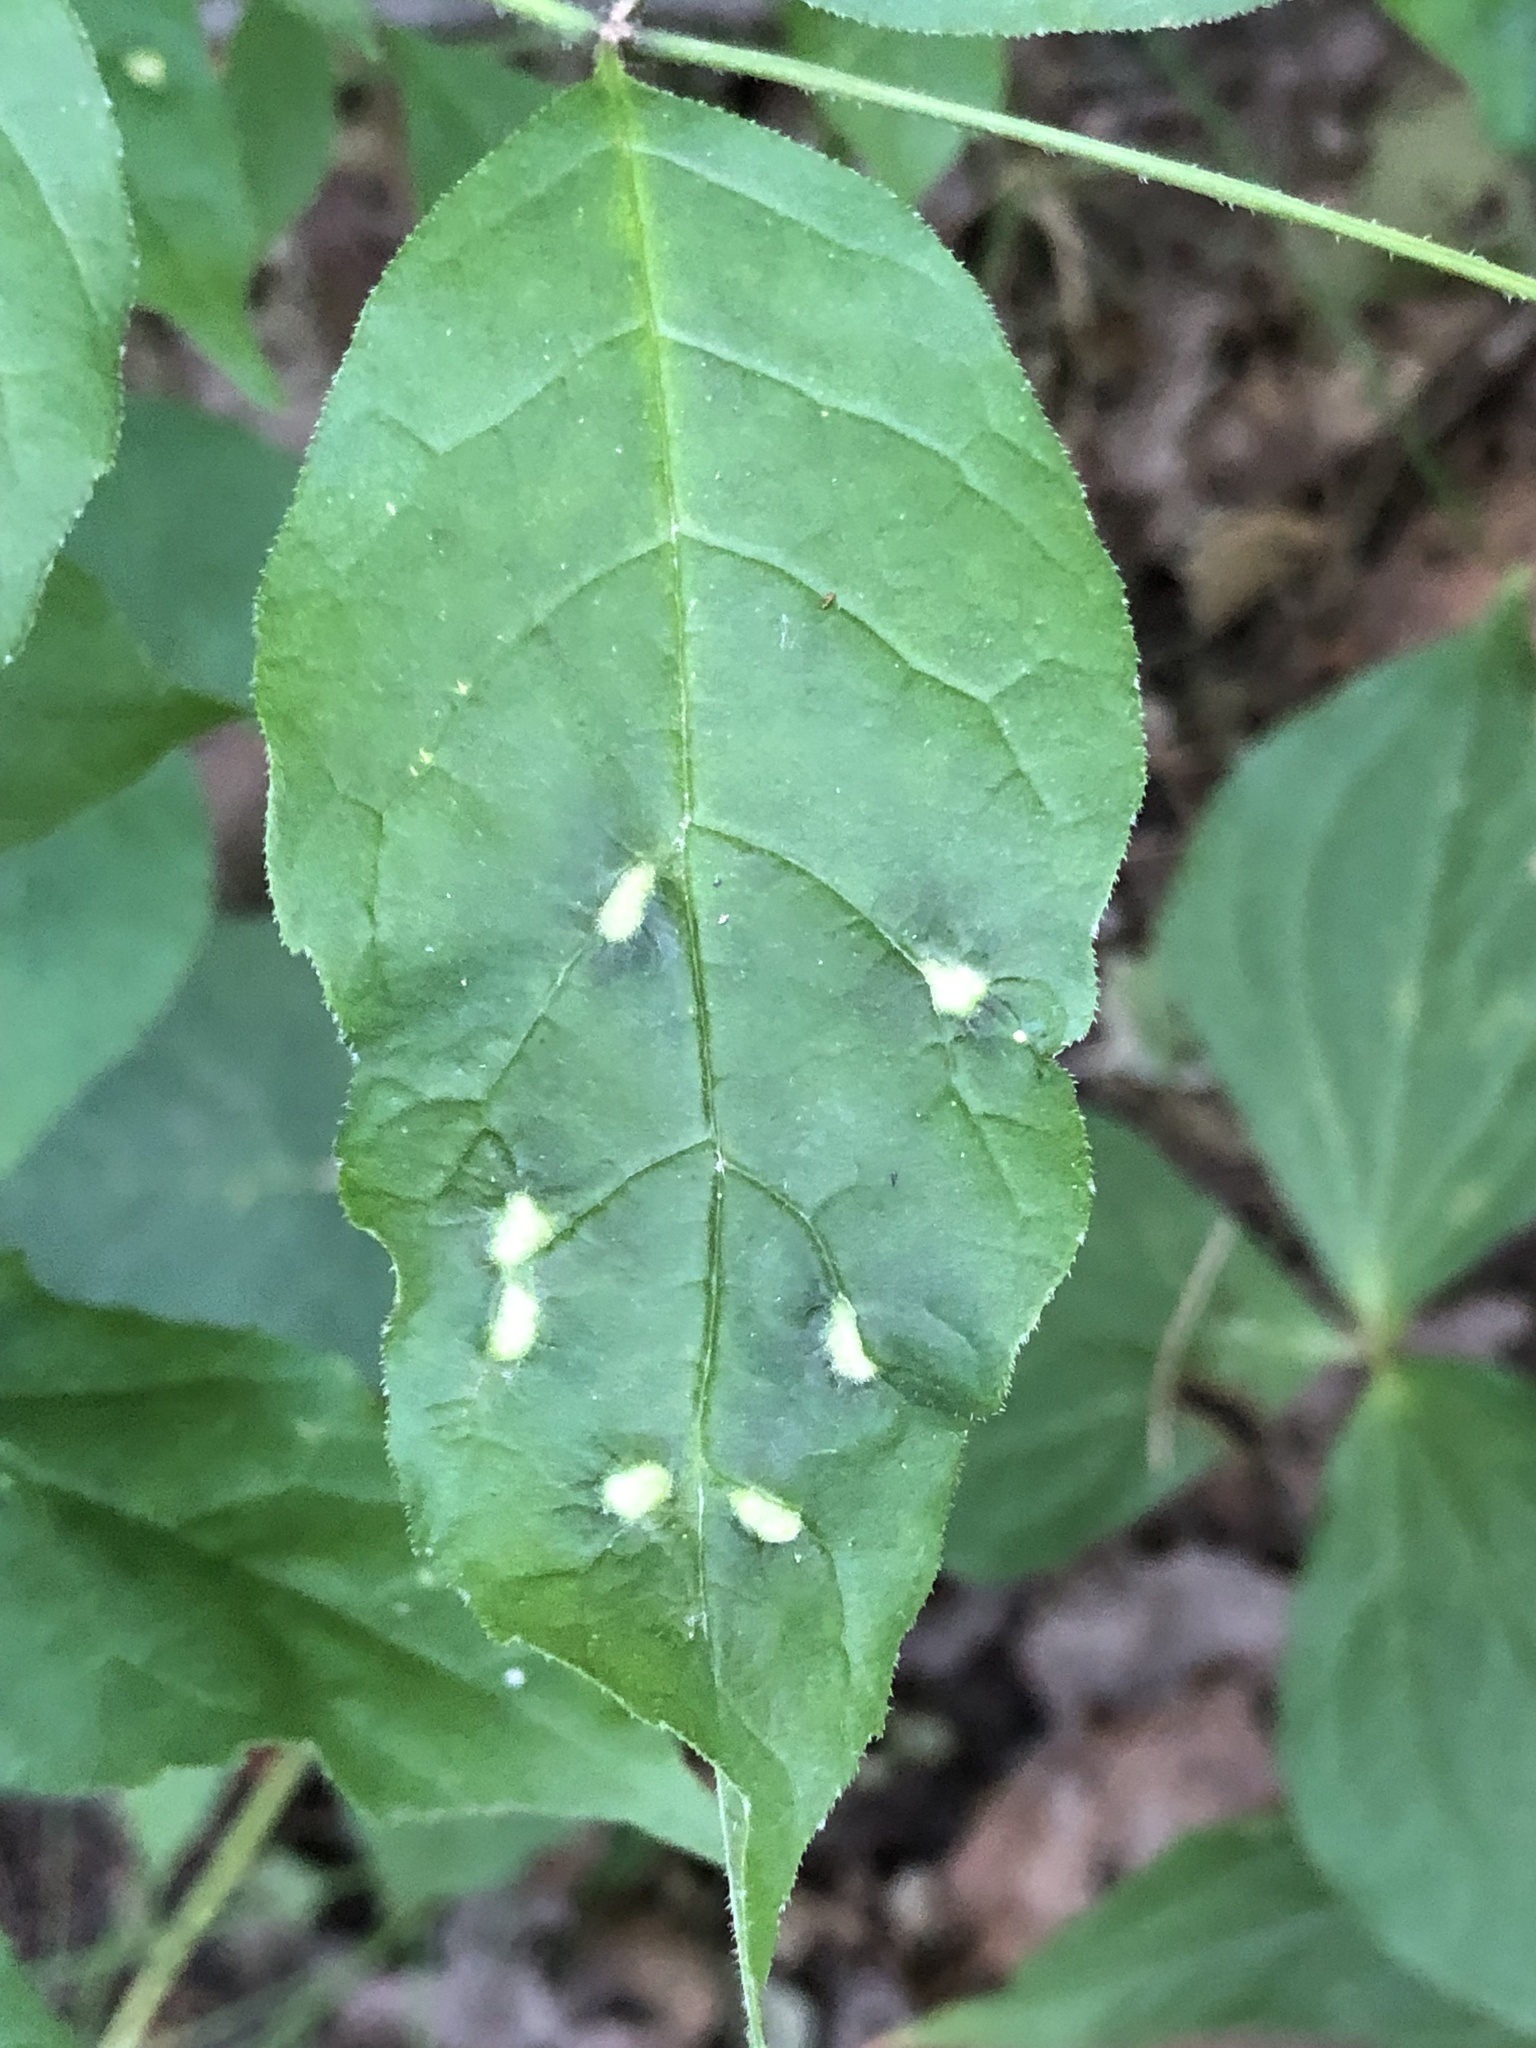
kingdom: Animalia
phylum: Arthropoda
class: Arachnida
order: Trombidiformes
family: Eriophyidae
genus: Aceria
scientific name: Aceria fraxinicola
